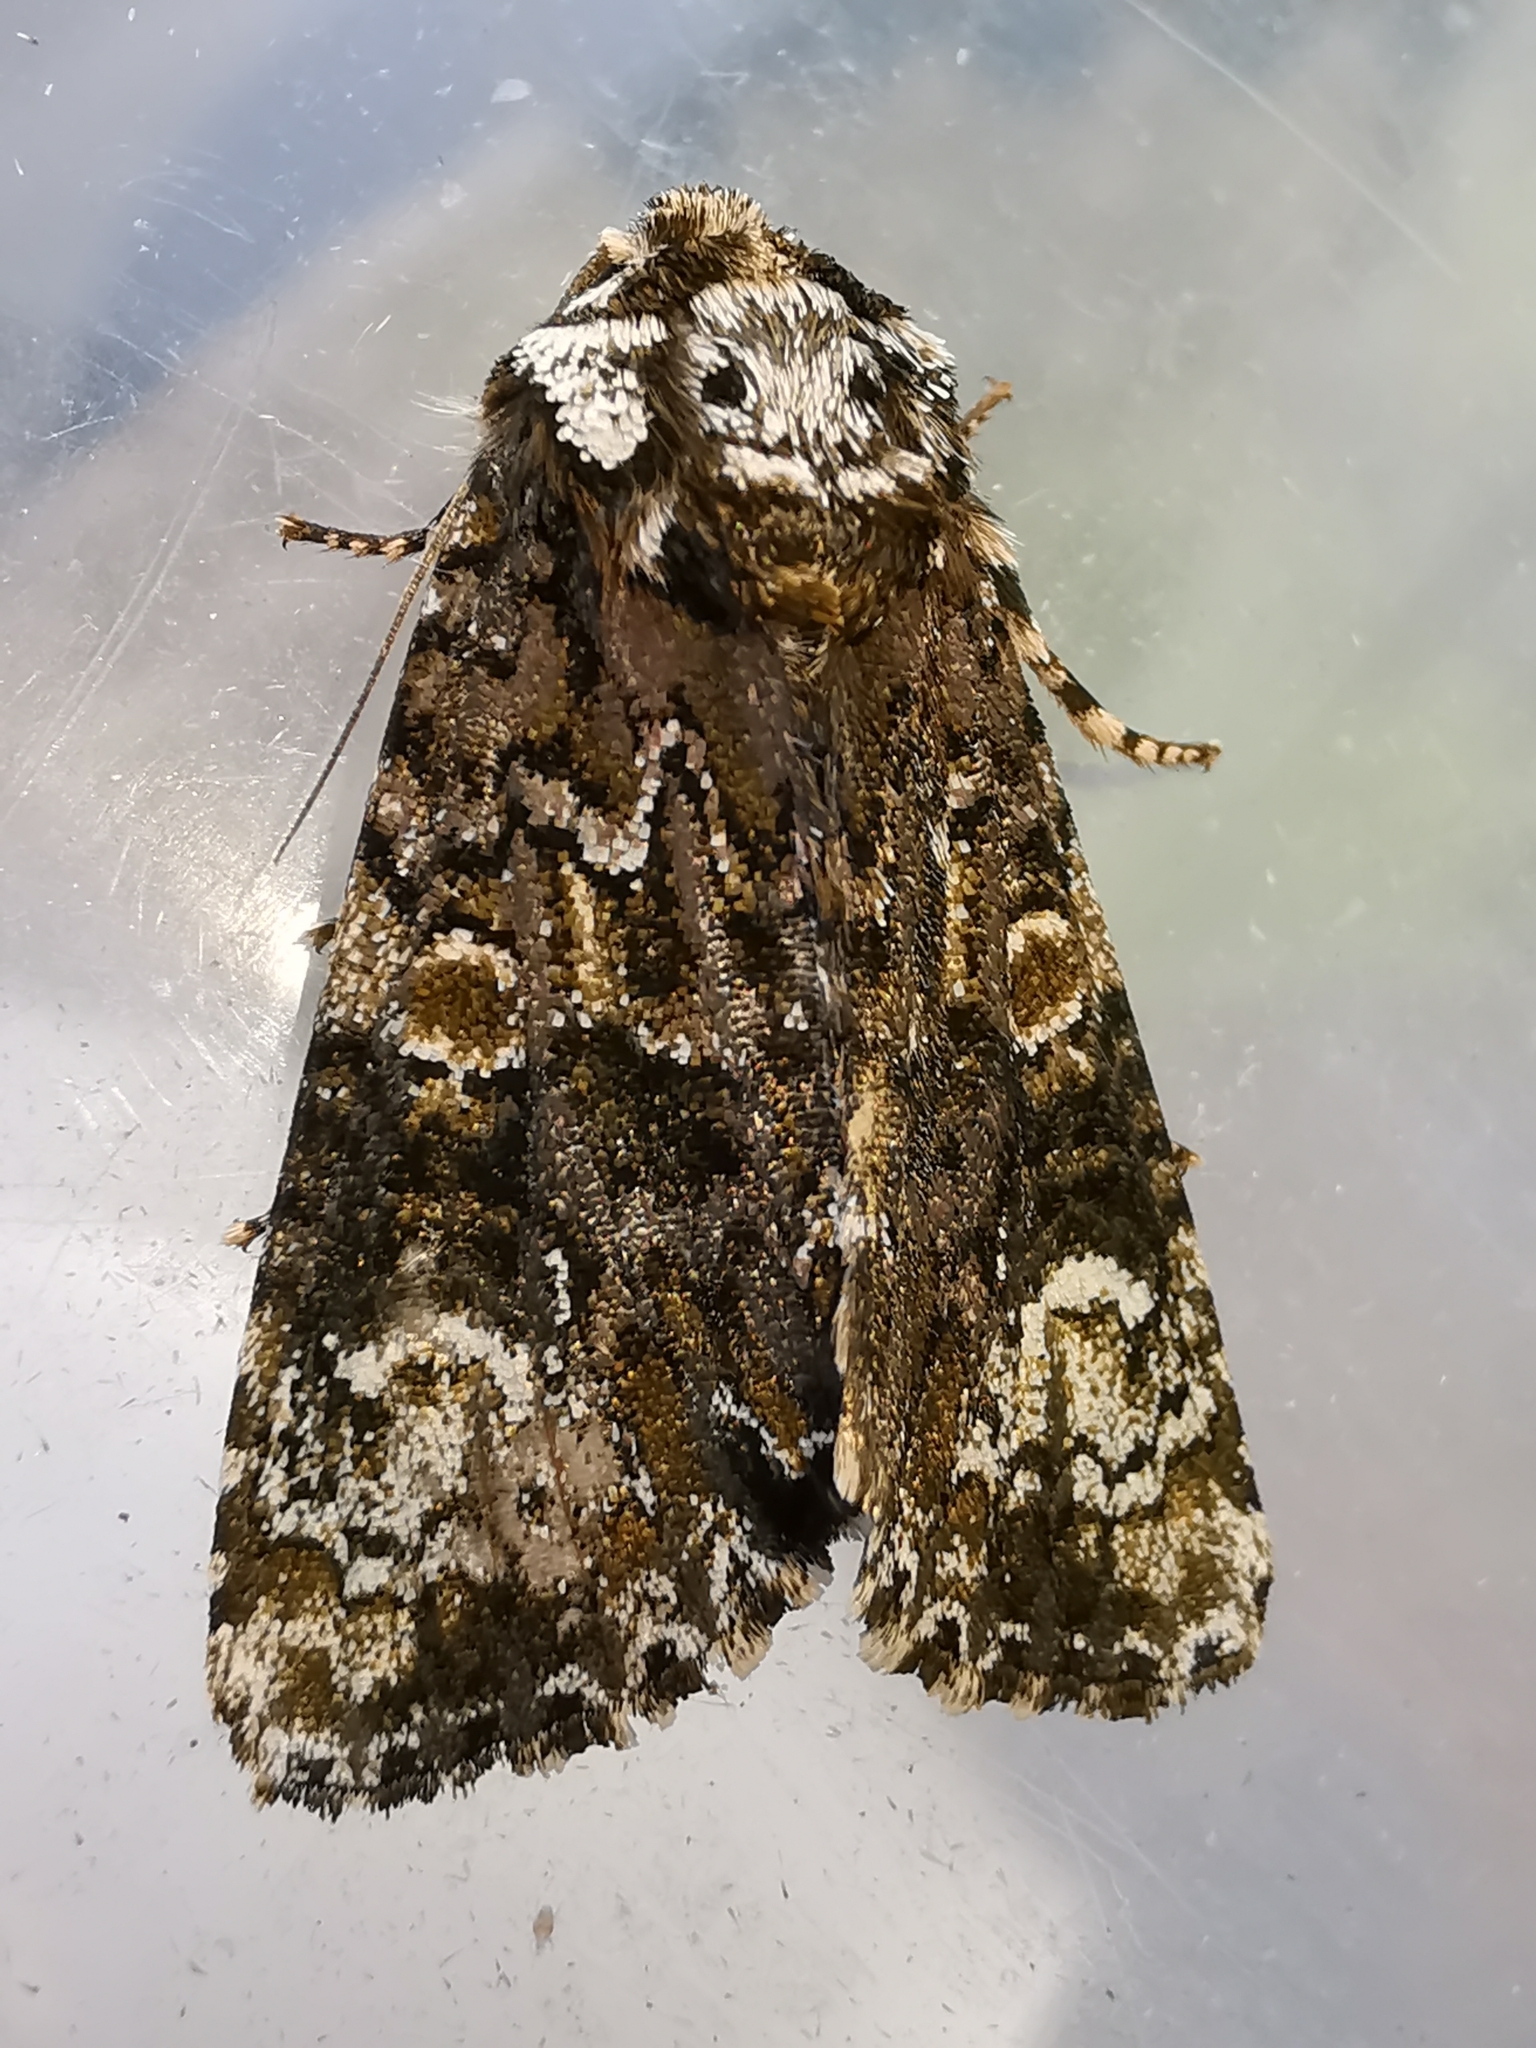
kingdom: Animalia
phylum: Arthropoda
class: Insecta
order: Lepidoptera
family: Noctuidae
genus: Craniophora
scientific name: Craniophora ligustri
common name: Coronet
